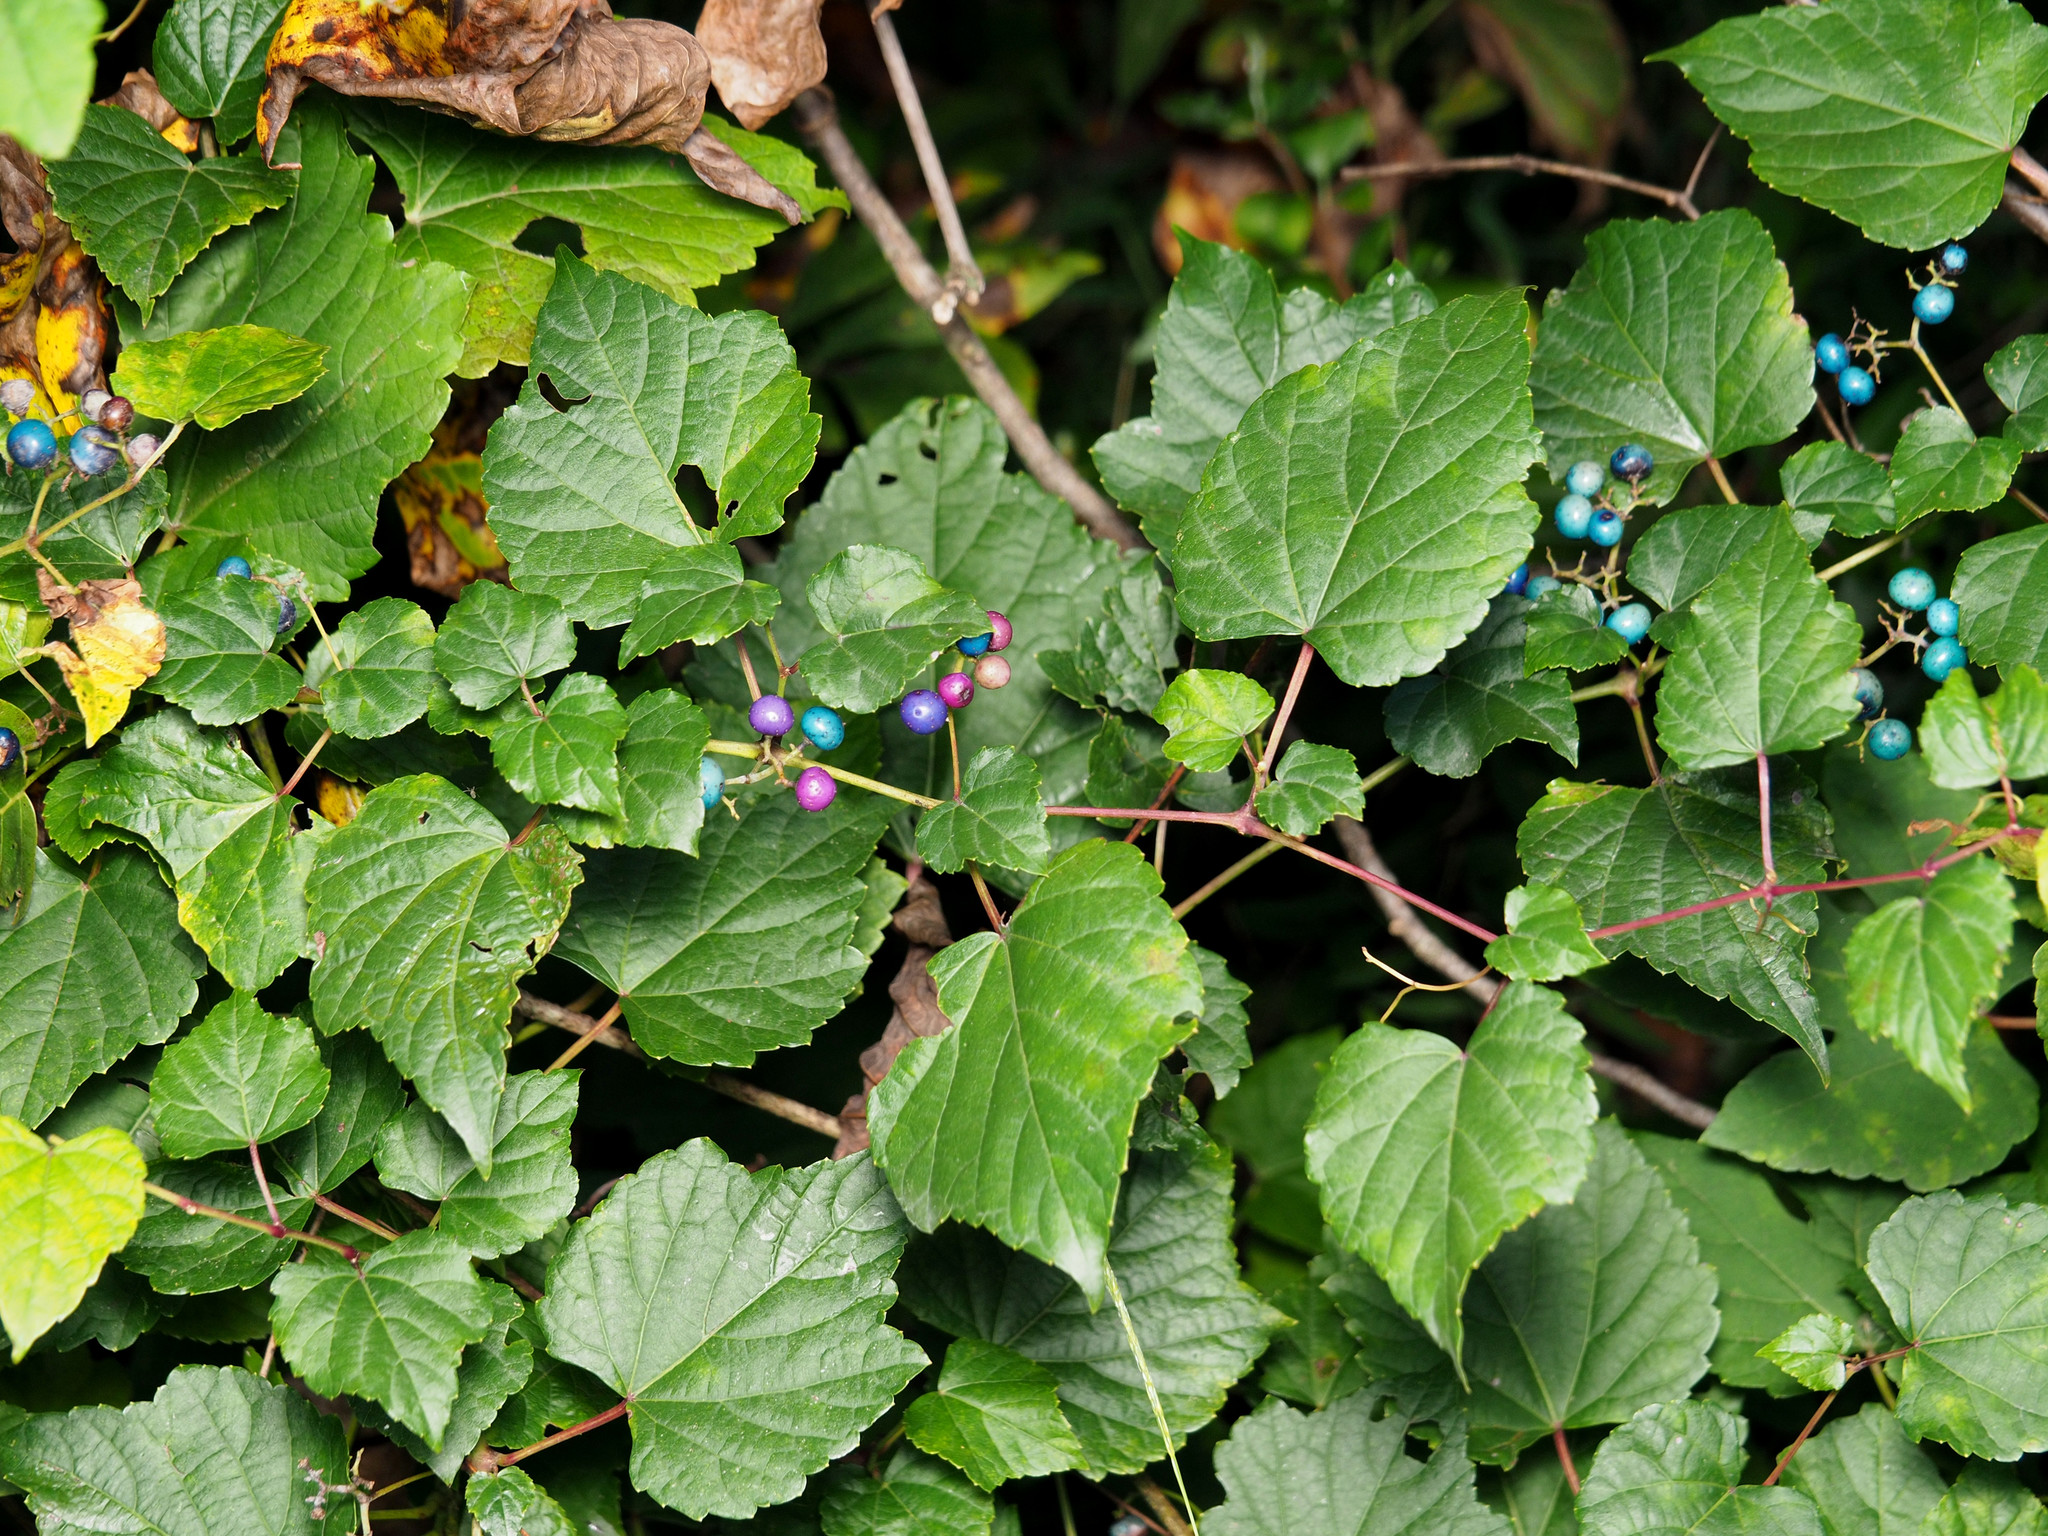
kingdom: Plantae
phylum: Tracheophyta
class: Magnoliopsida
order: Vitales
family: Vitaceae
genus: Ampelopsis
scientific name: Ampelopsis glandulosa
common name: Amur peppervine
